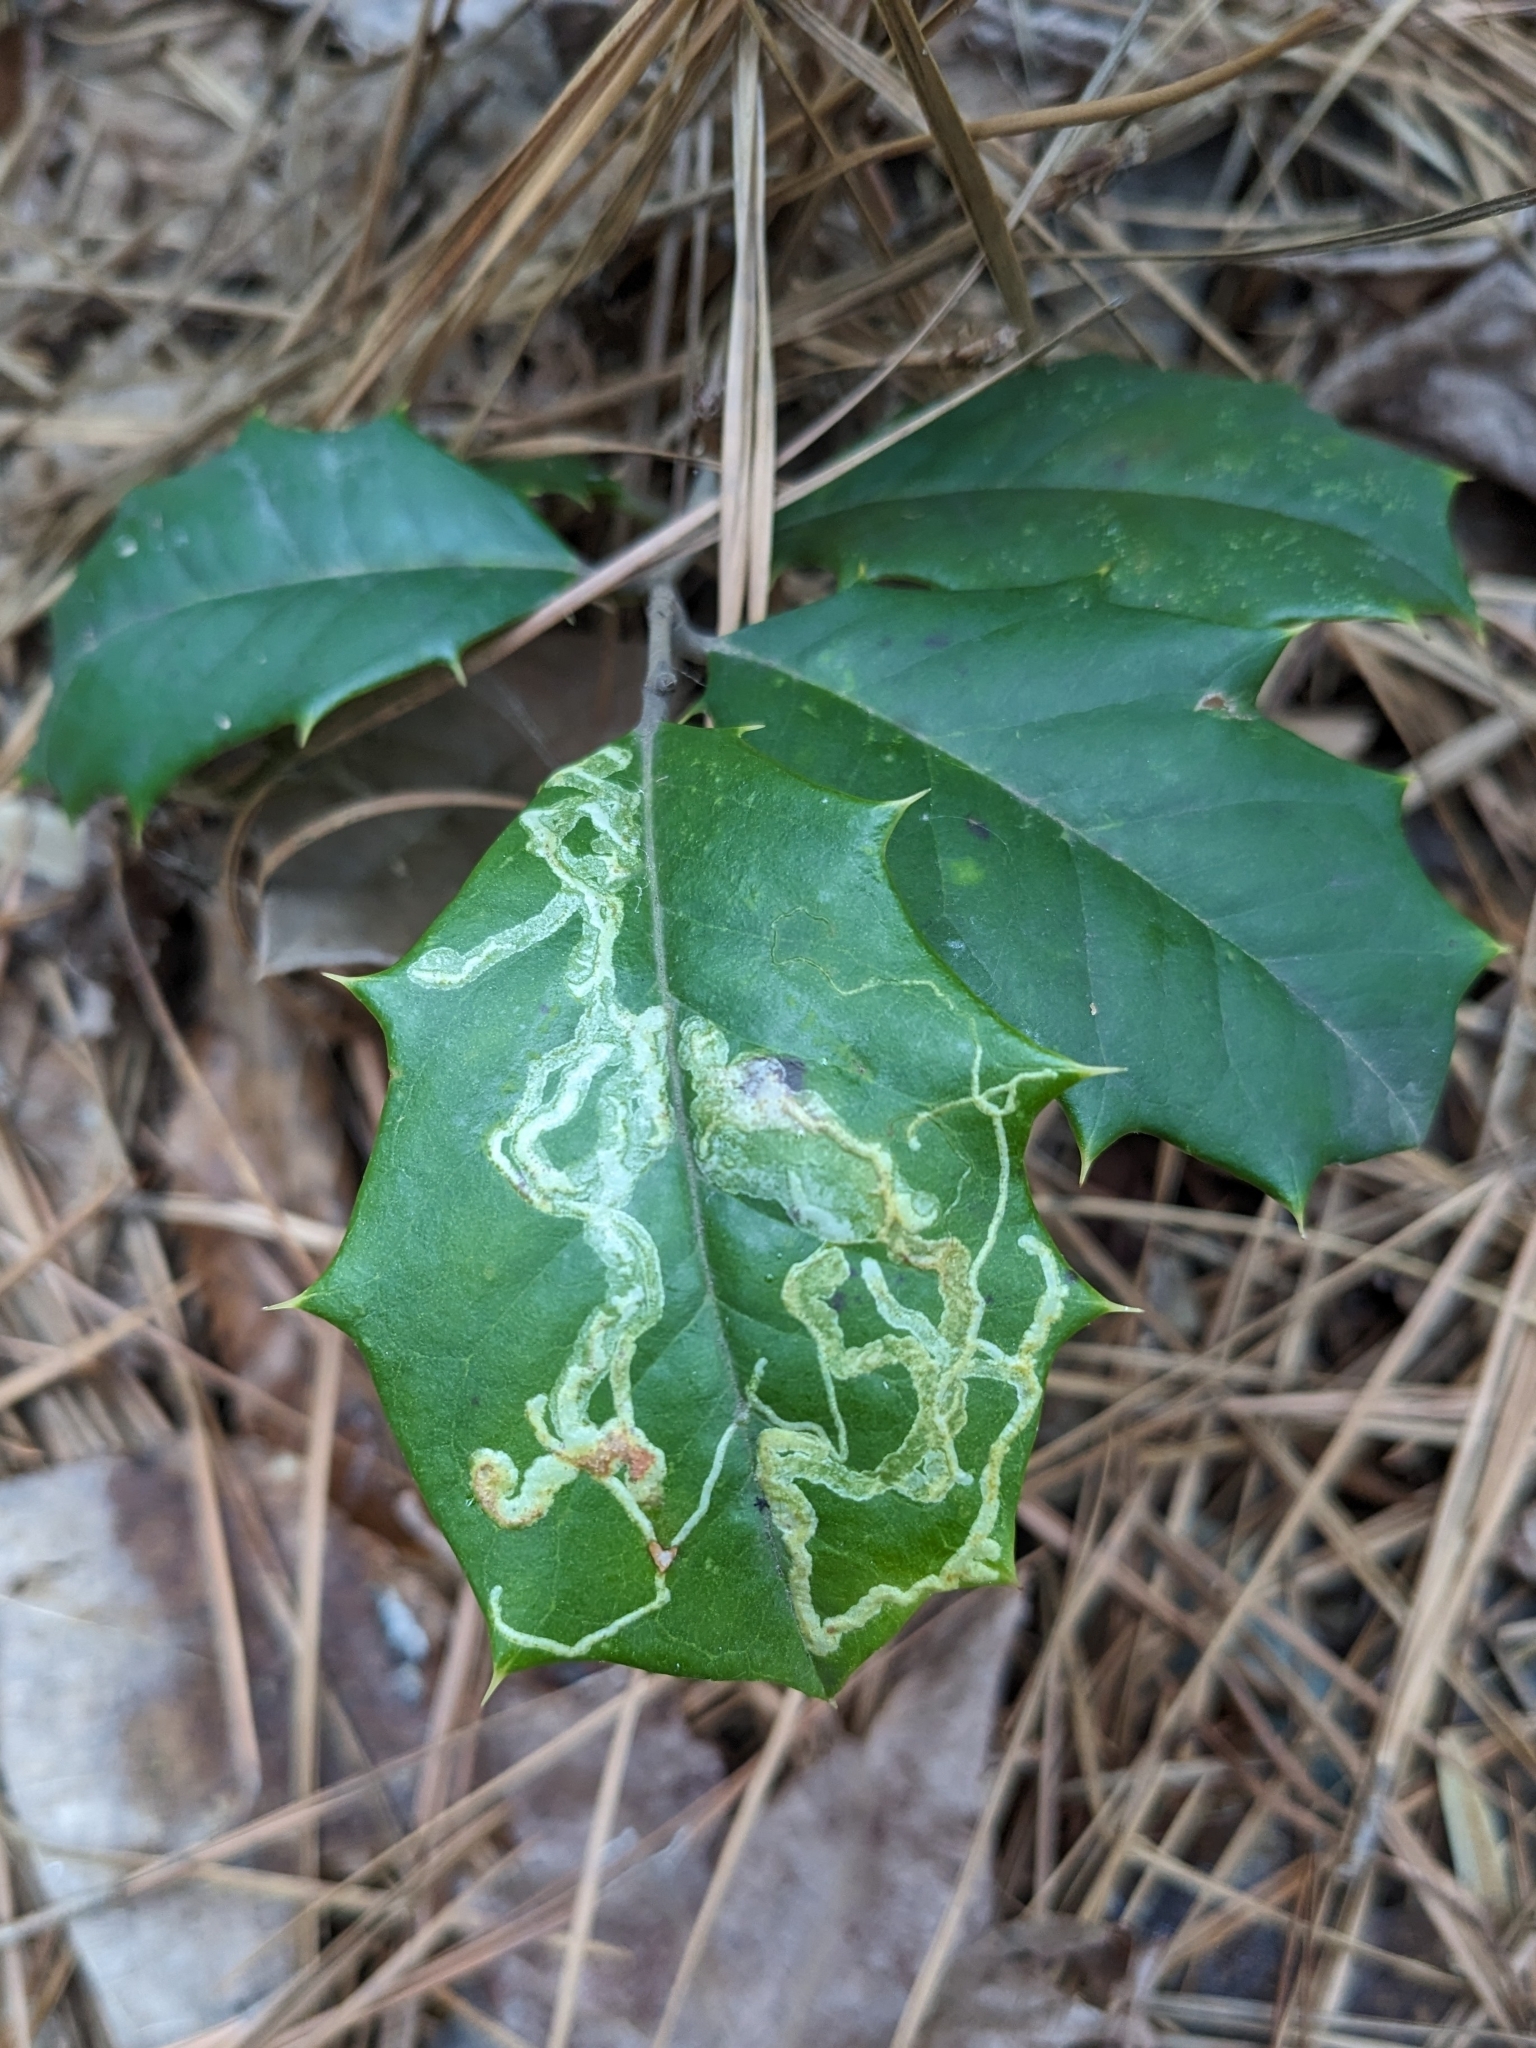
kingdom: Animalia
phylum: Arthropoda
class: Insecta
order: Diptera
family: Agromyzidae
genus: Phytomyza
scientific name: Phytomyza opacae
